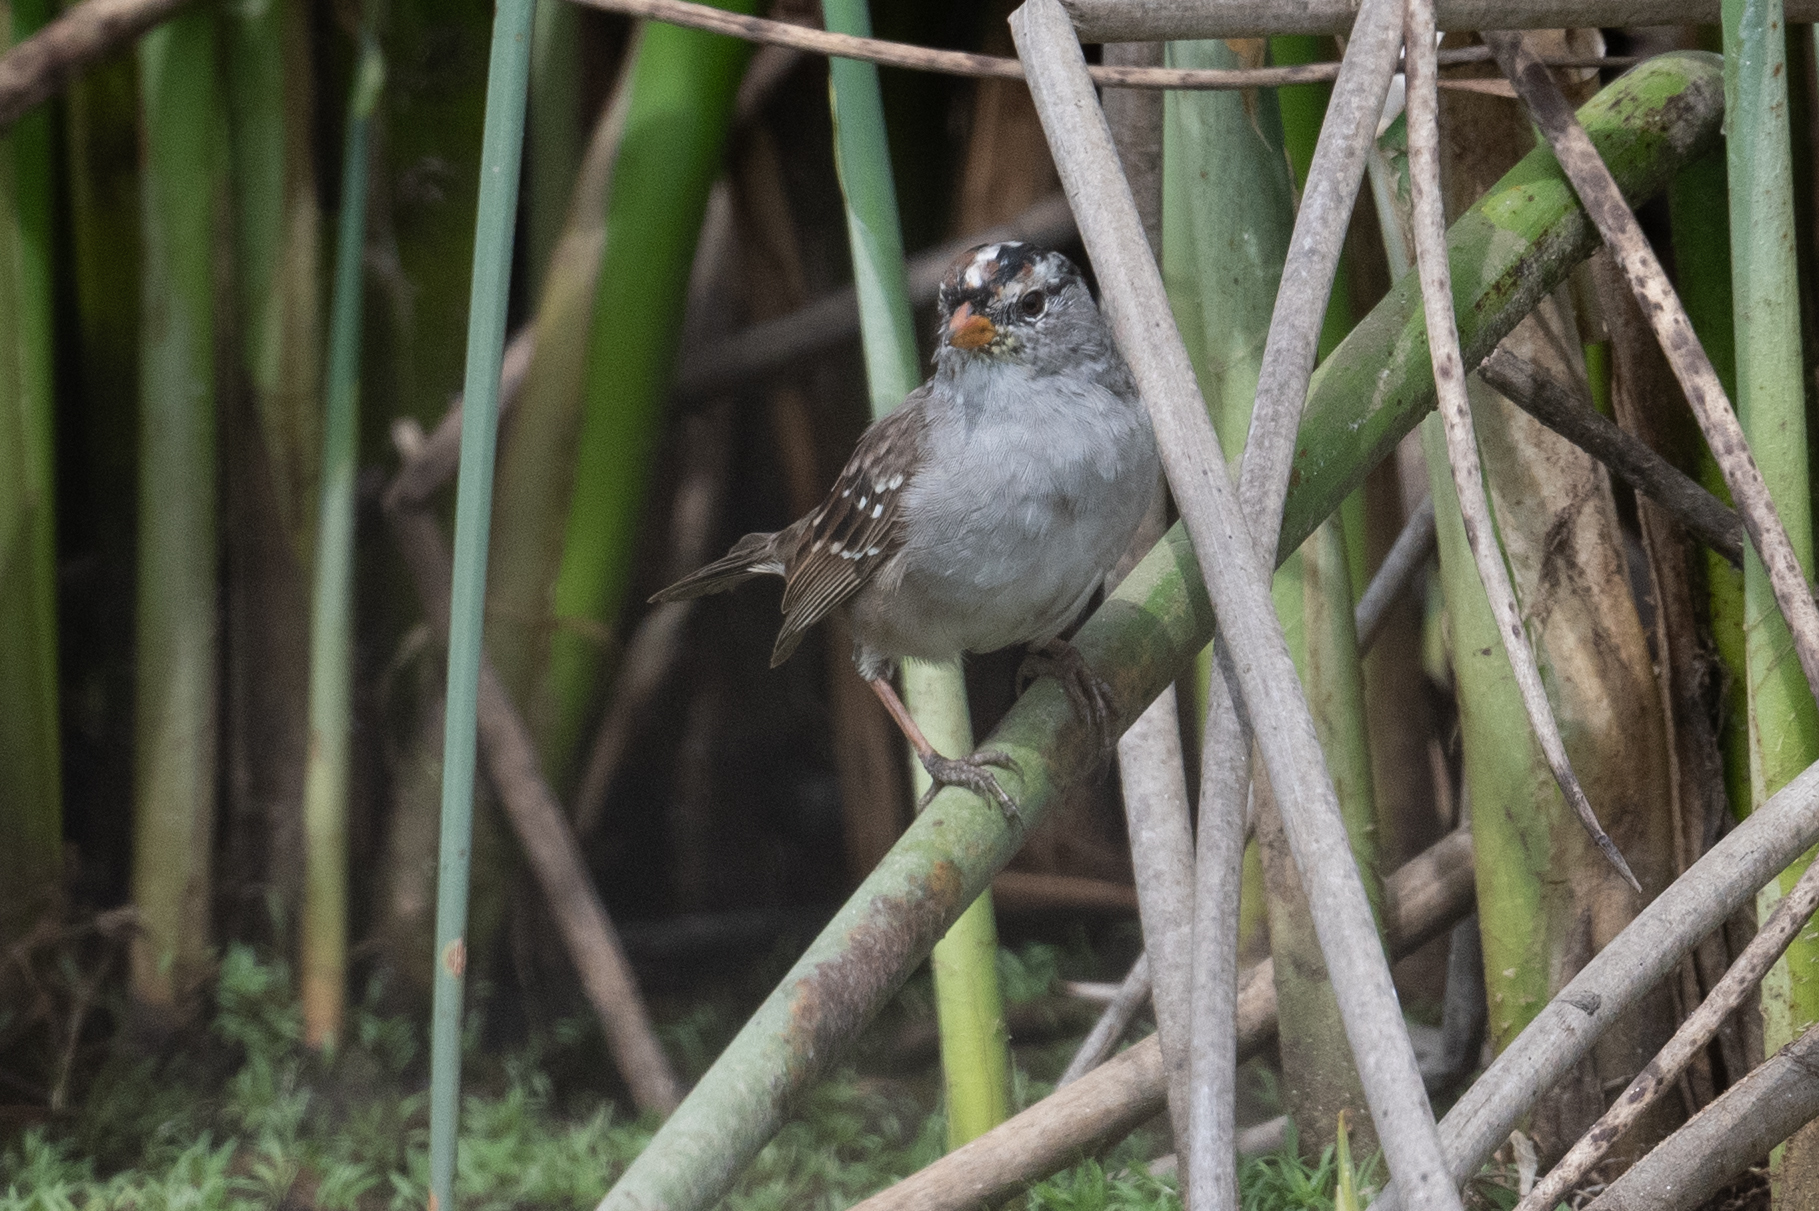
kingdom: Animalia
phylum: Chordata
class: Aves
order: Passeriformes
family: Passerellidae
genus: Zonotrichia
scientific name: Zonotrichia leucophrys
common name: White-crowned sparrow
